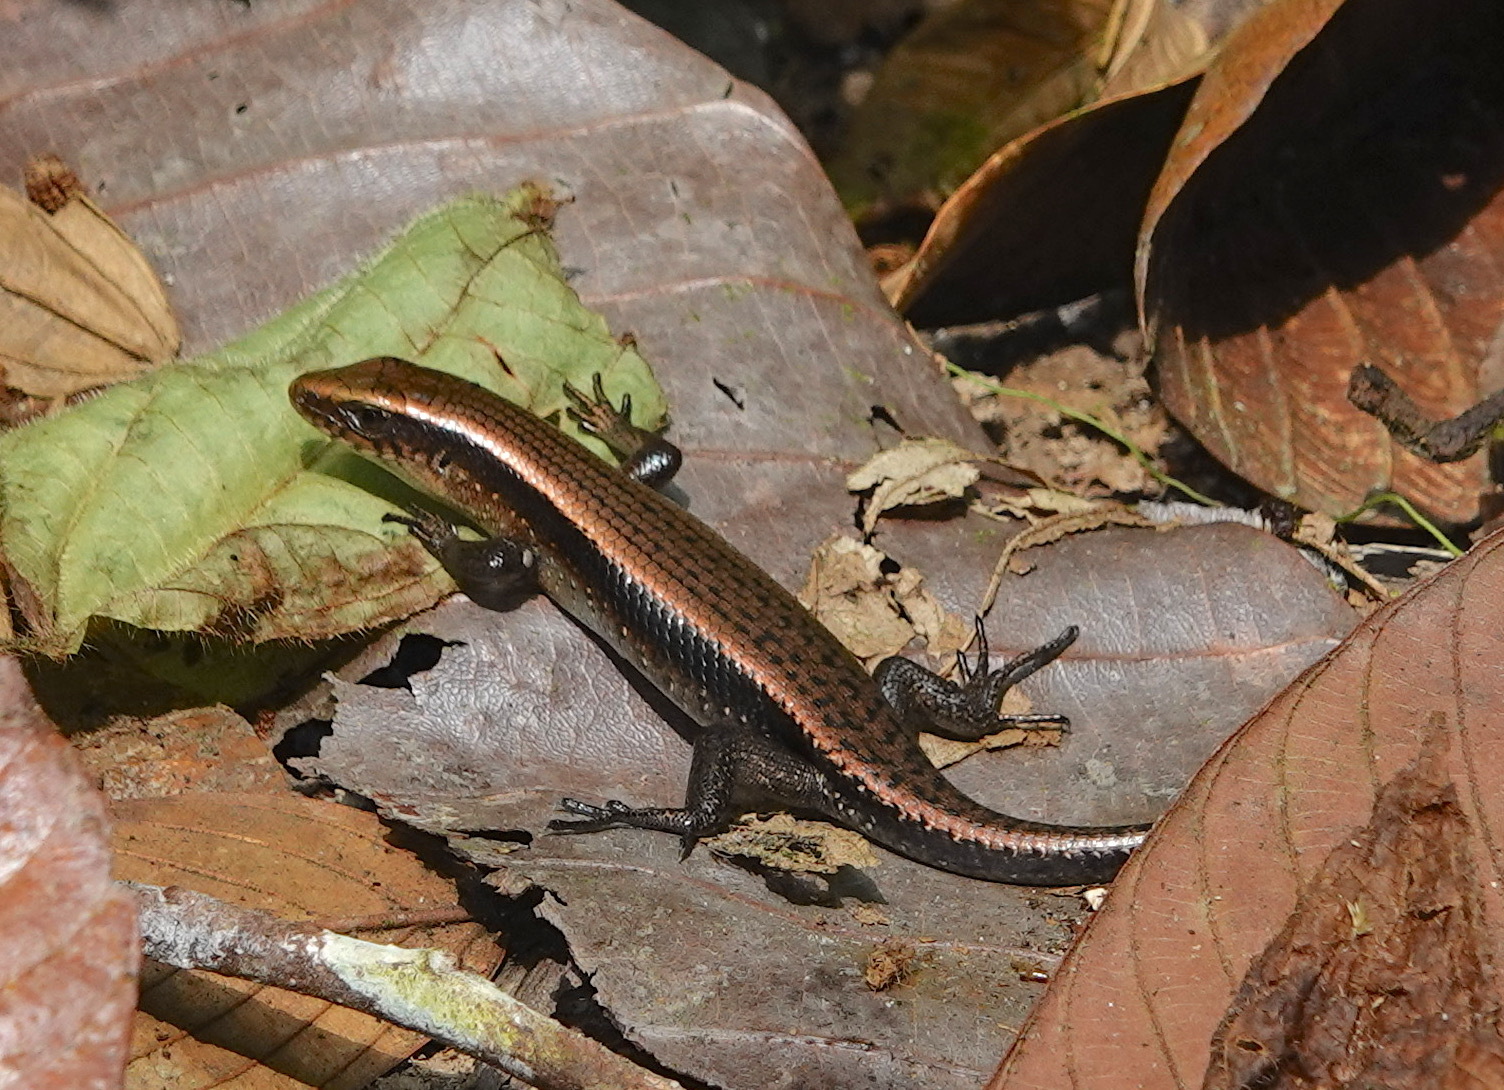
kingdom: Animalia
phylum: Chordata
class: Squamata
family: Scincidae
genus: Eutropis
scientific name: Eutropis multifasciata
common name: Common mabuya
